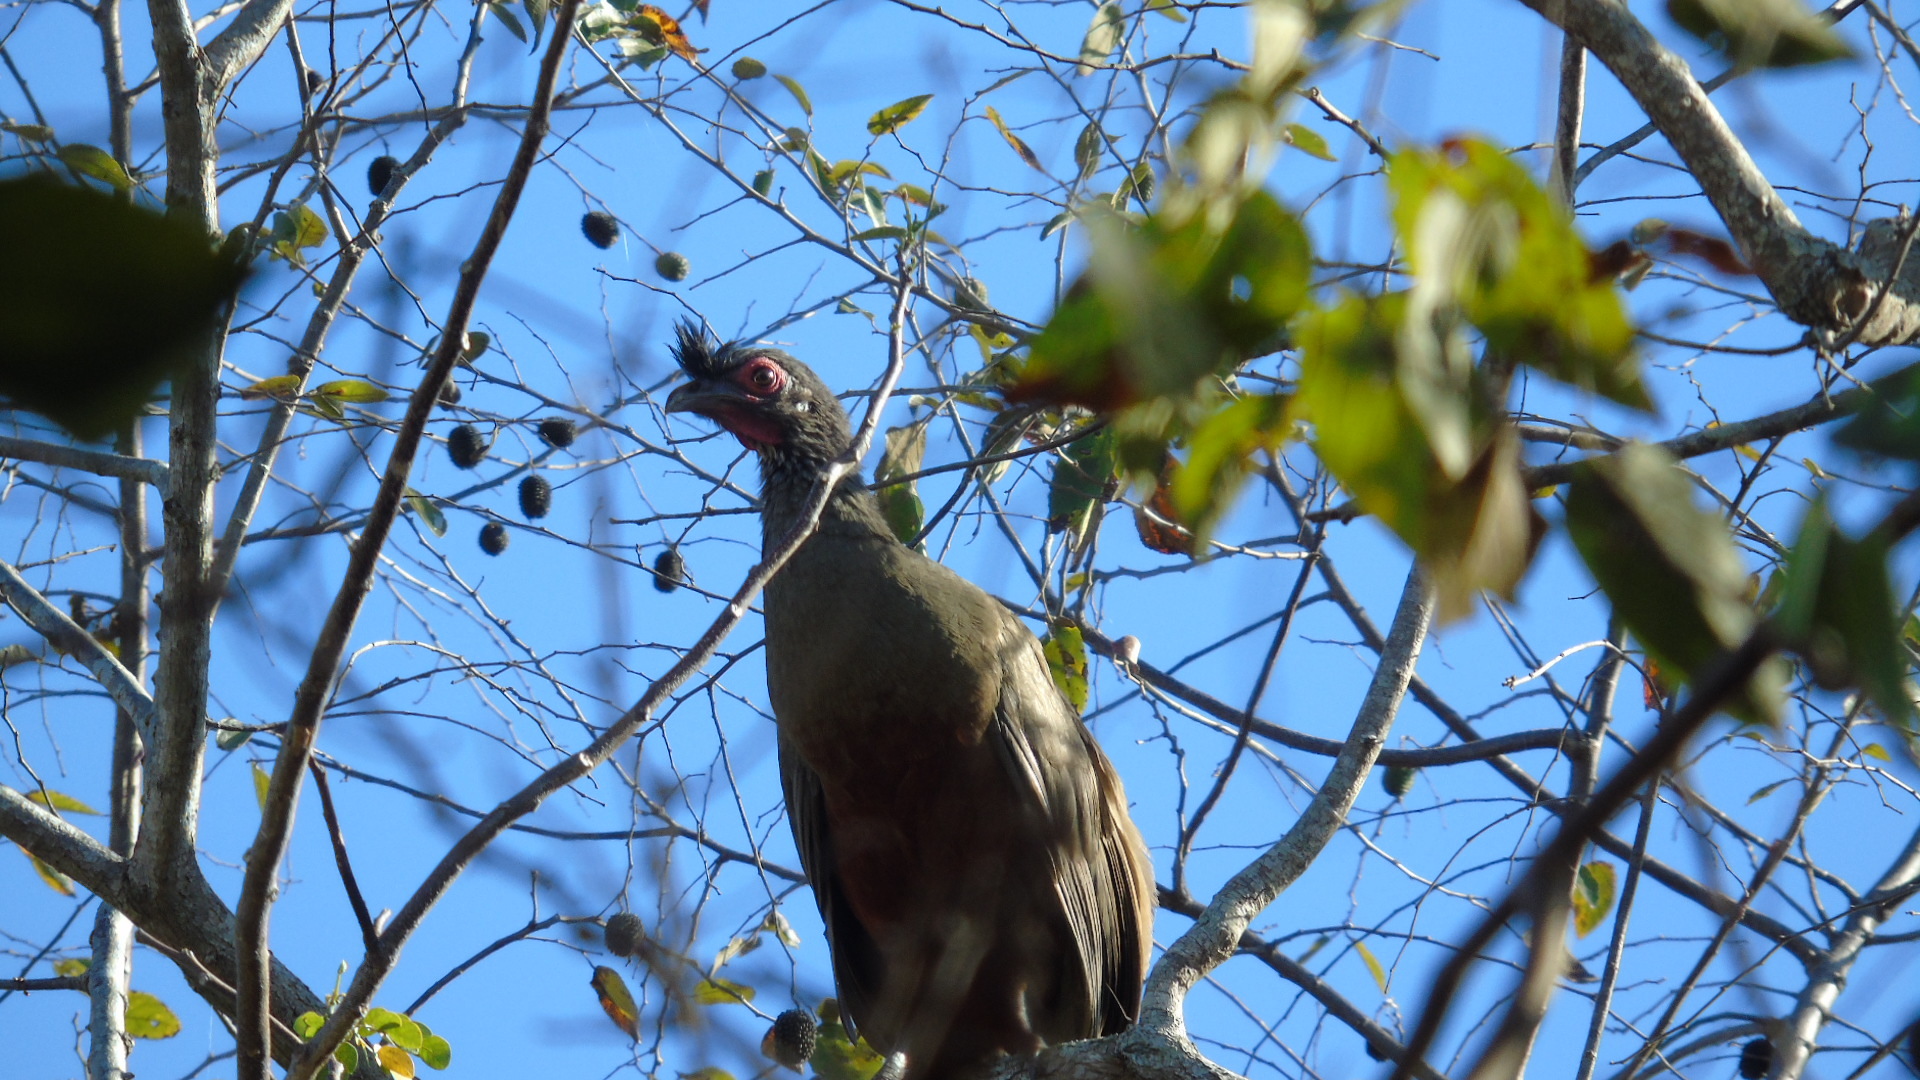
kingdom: Animalia
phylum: Chordata
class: Aves
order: Galliformes
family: Cracidae
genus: Ortalis
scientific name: Ortalis wagleri
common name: Rufous-bellied chachalaca
